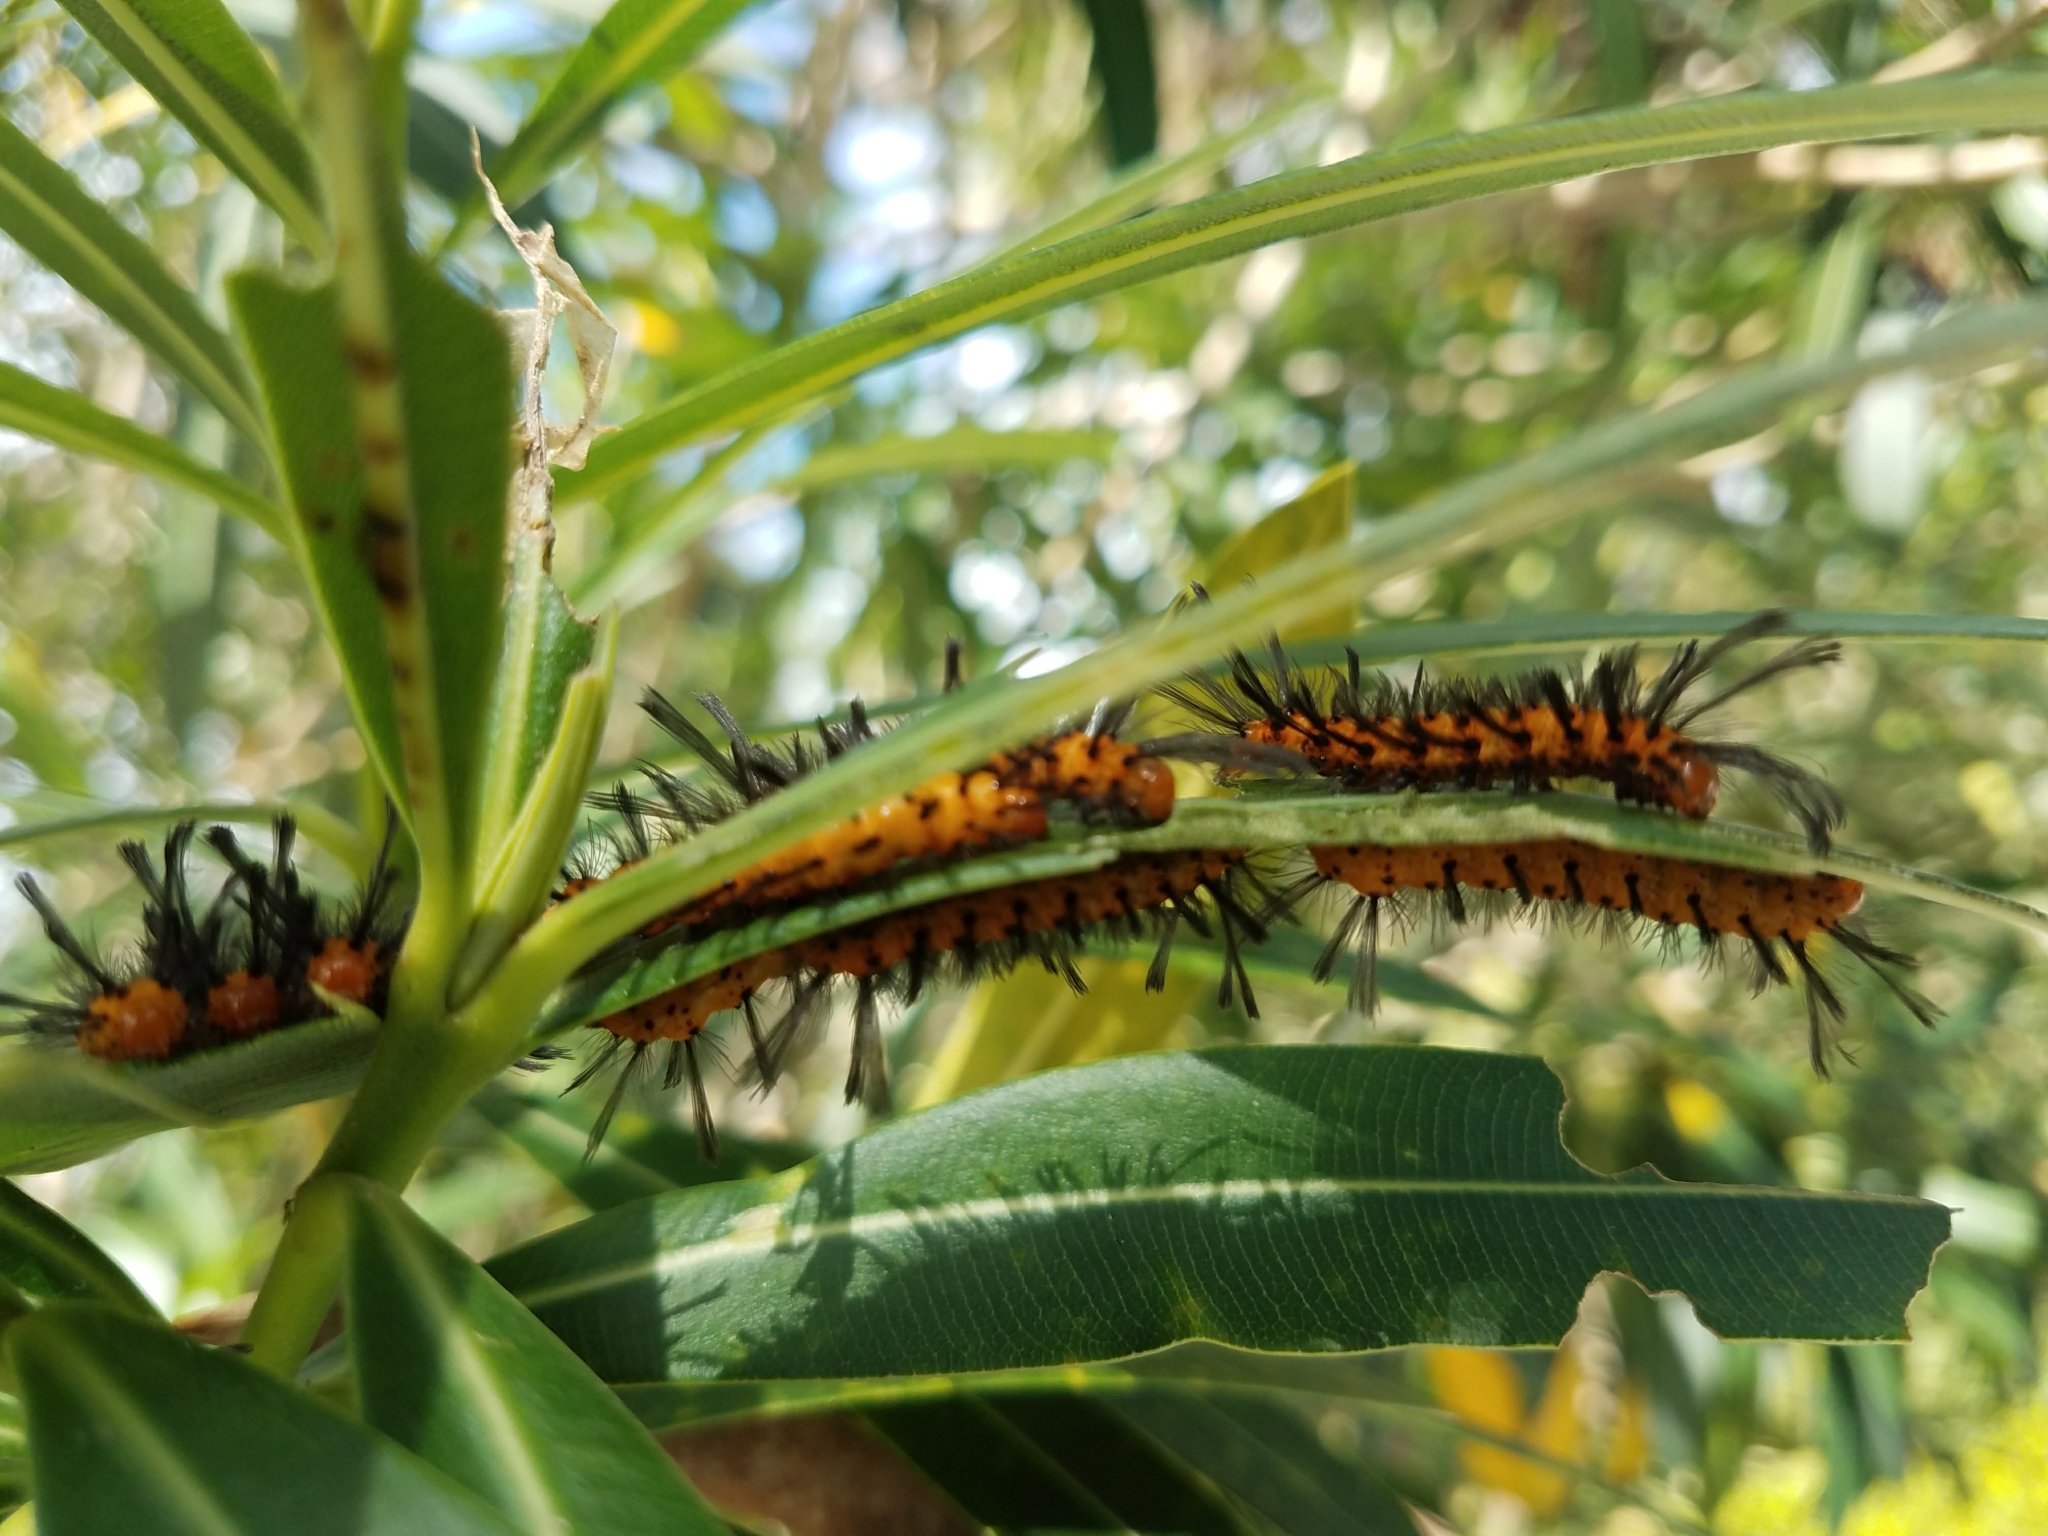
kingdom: Animalia
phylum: Arthropoda
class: Insecta
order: Lepidoptera
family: Erebidae
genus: Syntomeida
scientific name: Syntomeida epilais
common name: Polka-dot wasp moth
